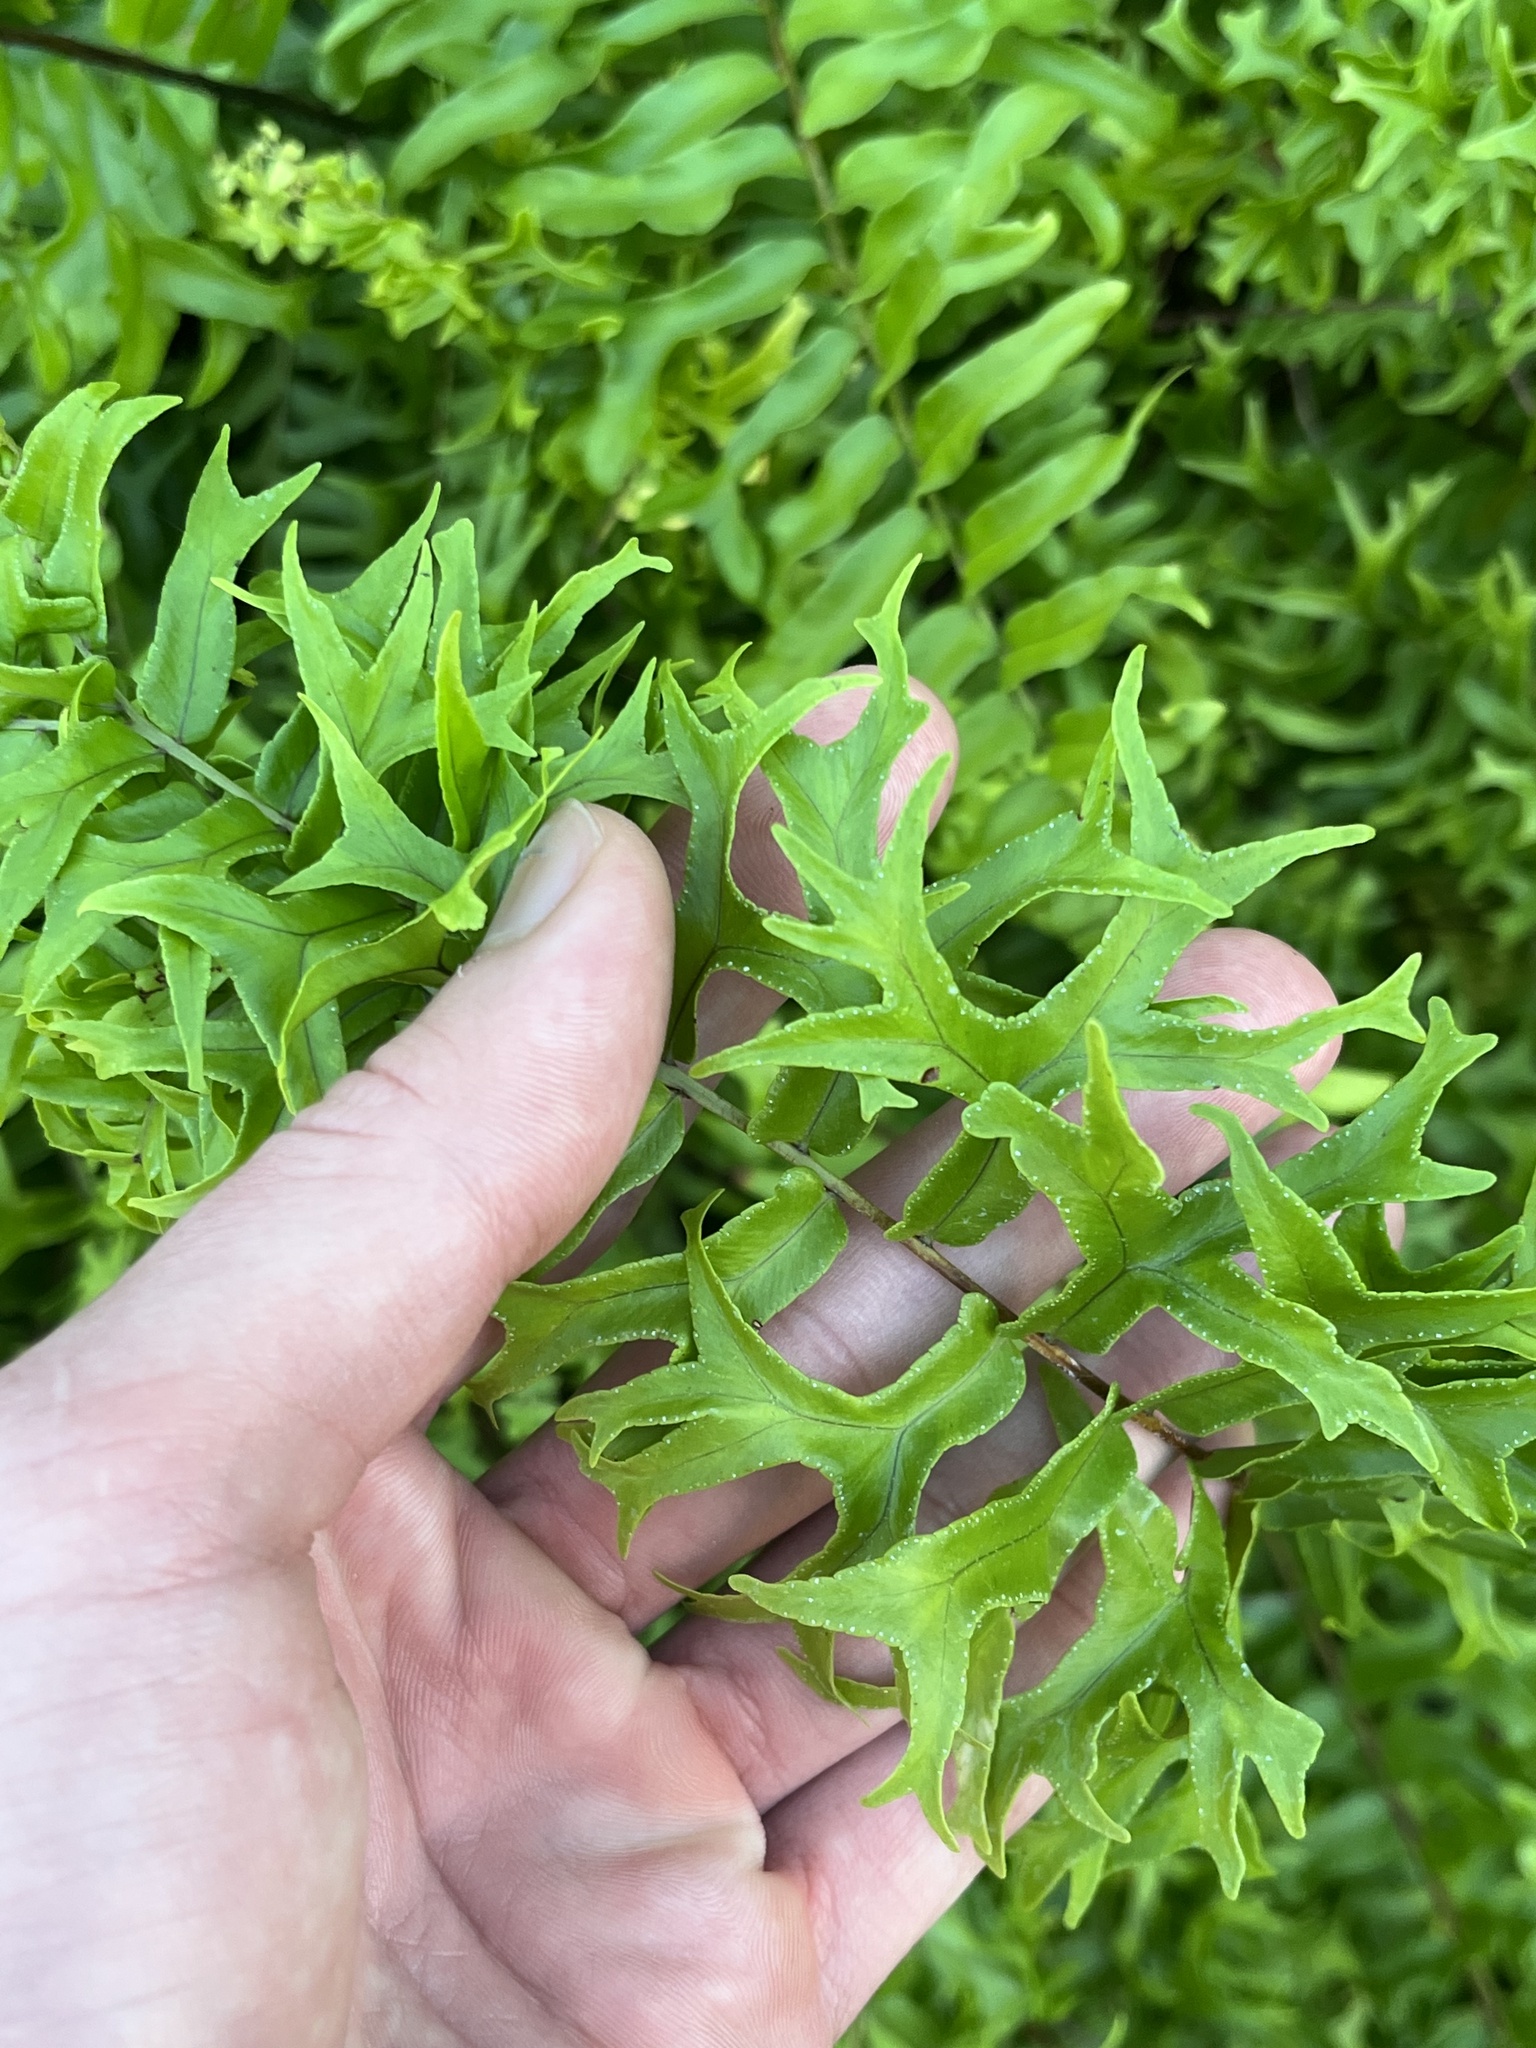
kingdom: Plantae
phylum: Tracheophyta
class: Polypodiopsida
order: Polypodiales
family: Nephrolepidaceae
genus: Nephrolepis
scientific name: Nephrolepis falcata
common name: Fishtail swordfern
